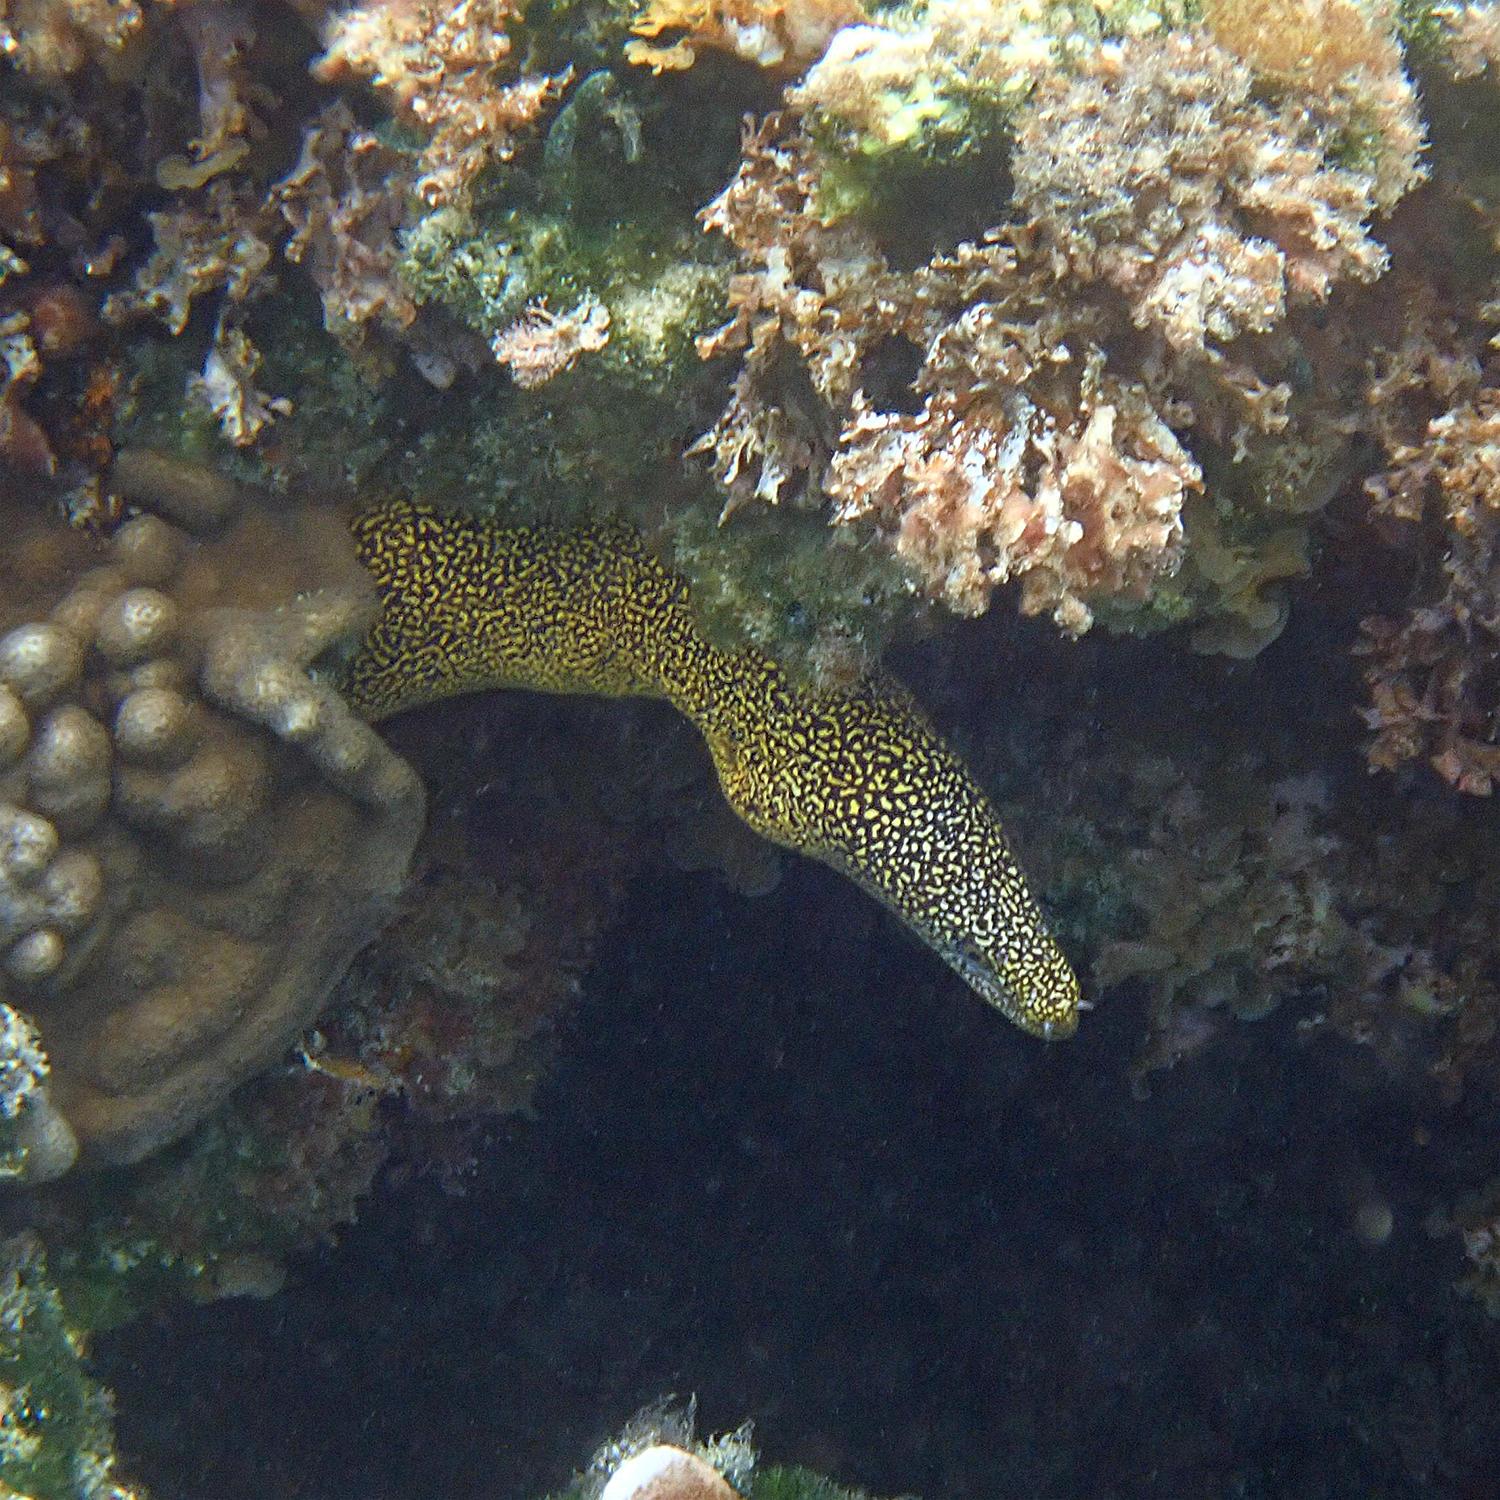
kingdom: Animalia
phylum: Chordata
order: Anguilliformes
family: Muraenidae
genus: Gymnothorax
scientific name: Gymnothorax eurostus
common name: Stout moray
